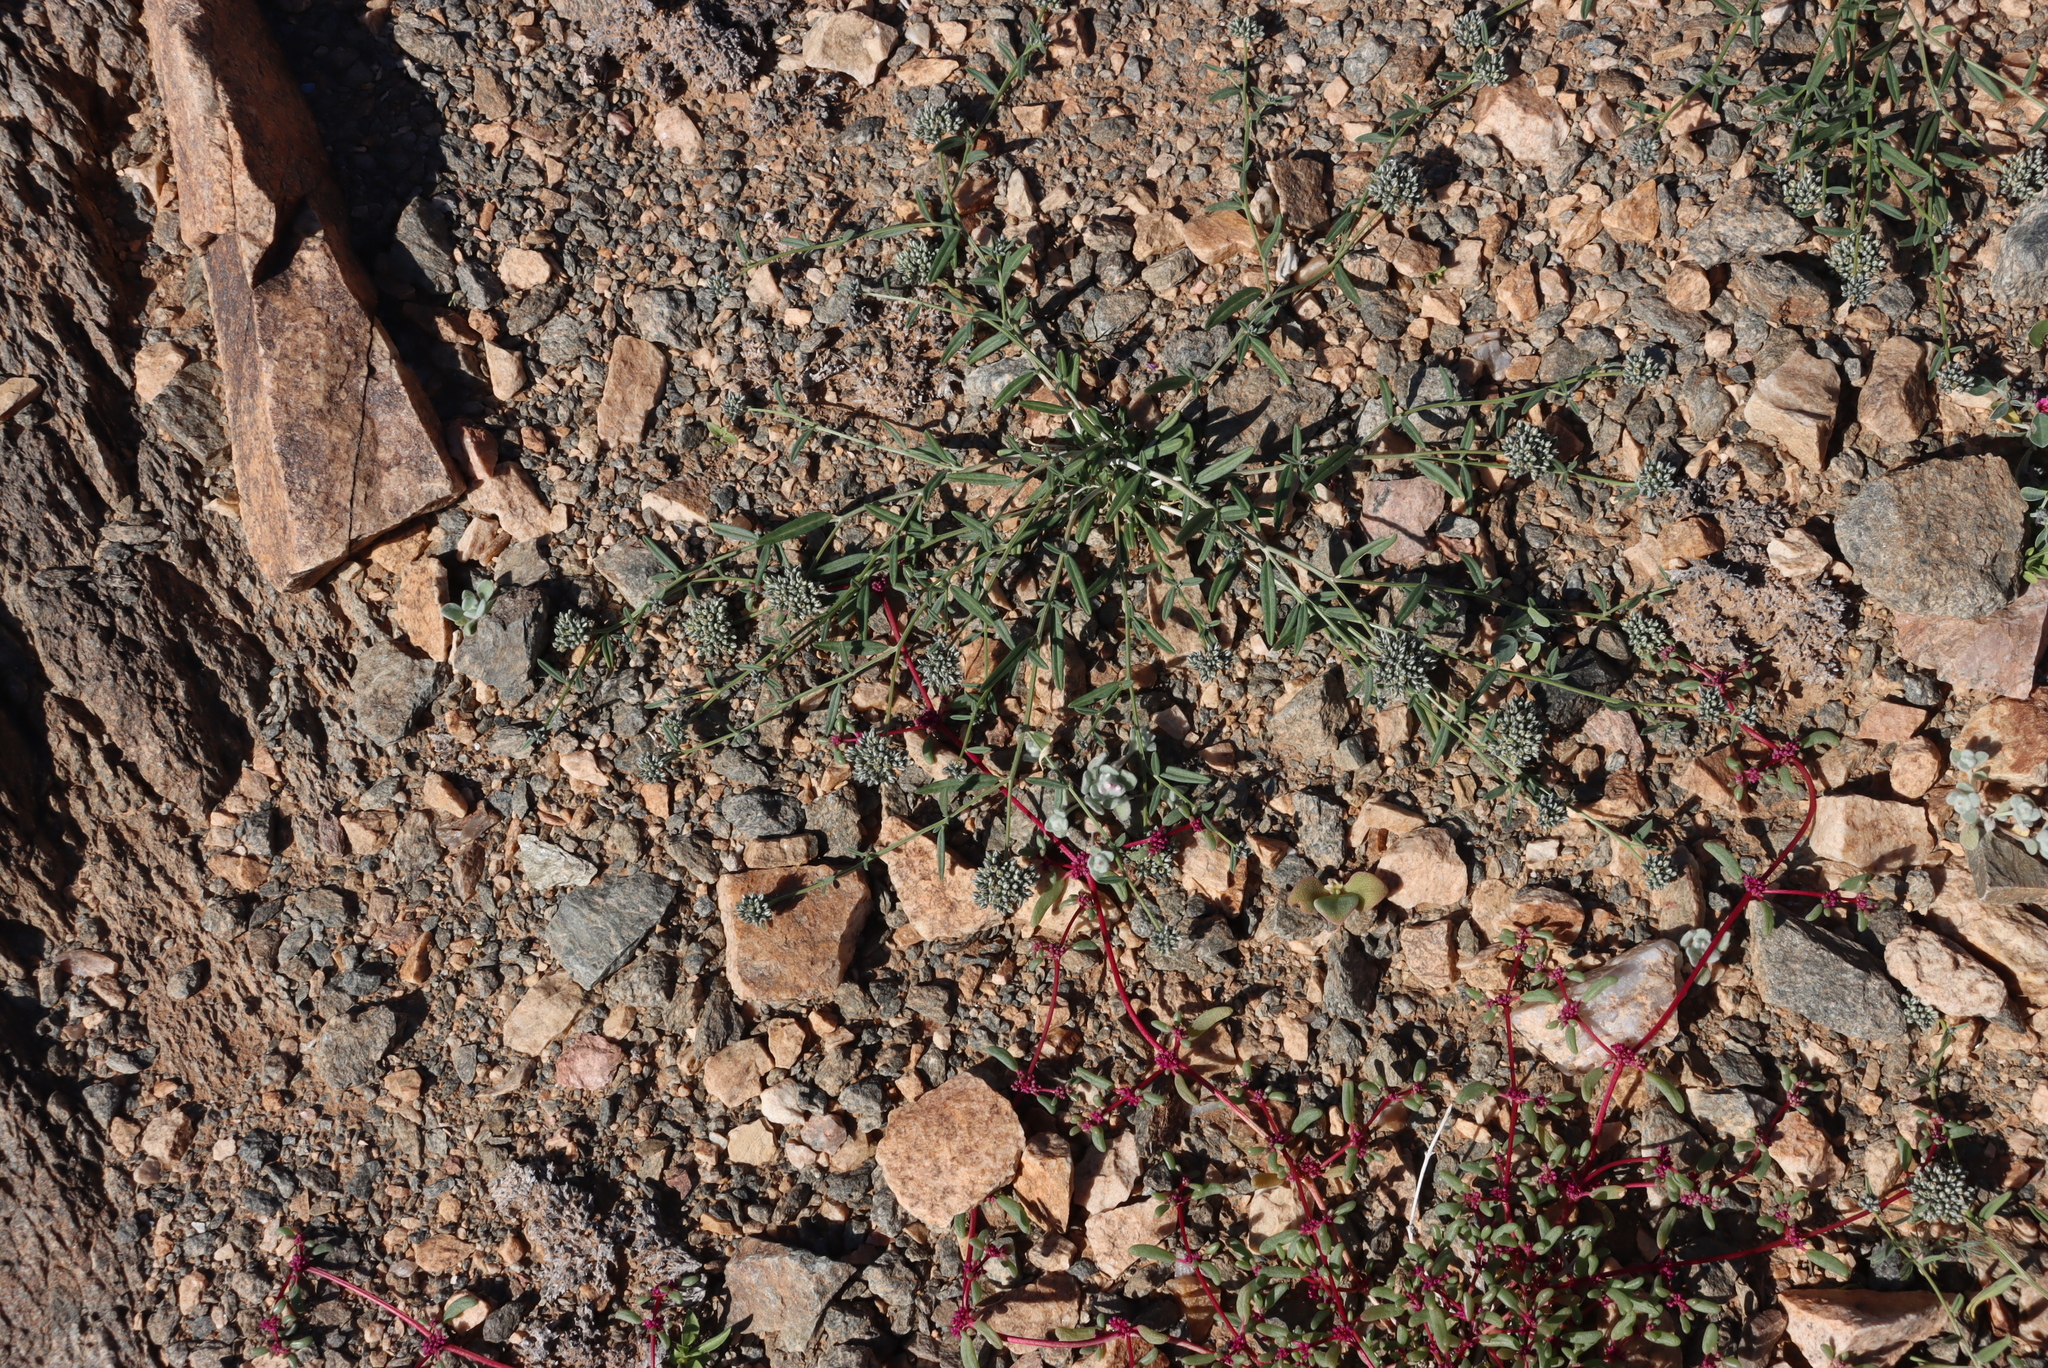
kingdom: Plantae
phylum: Tracheophyta
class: Magnoliopsida
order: Caryophyllales
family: Limeaceae
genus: Limeum
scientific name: Limeum africanum
